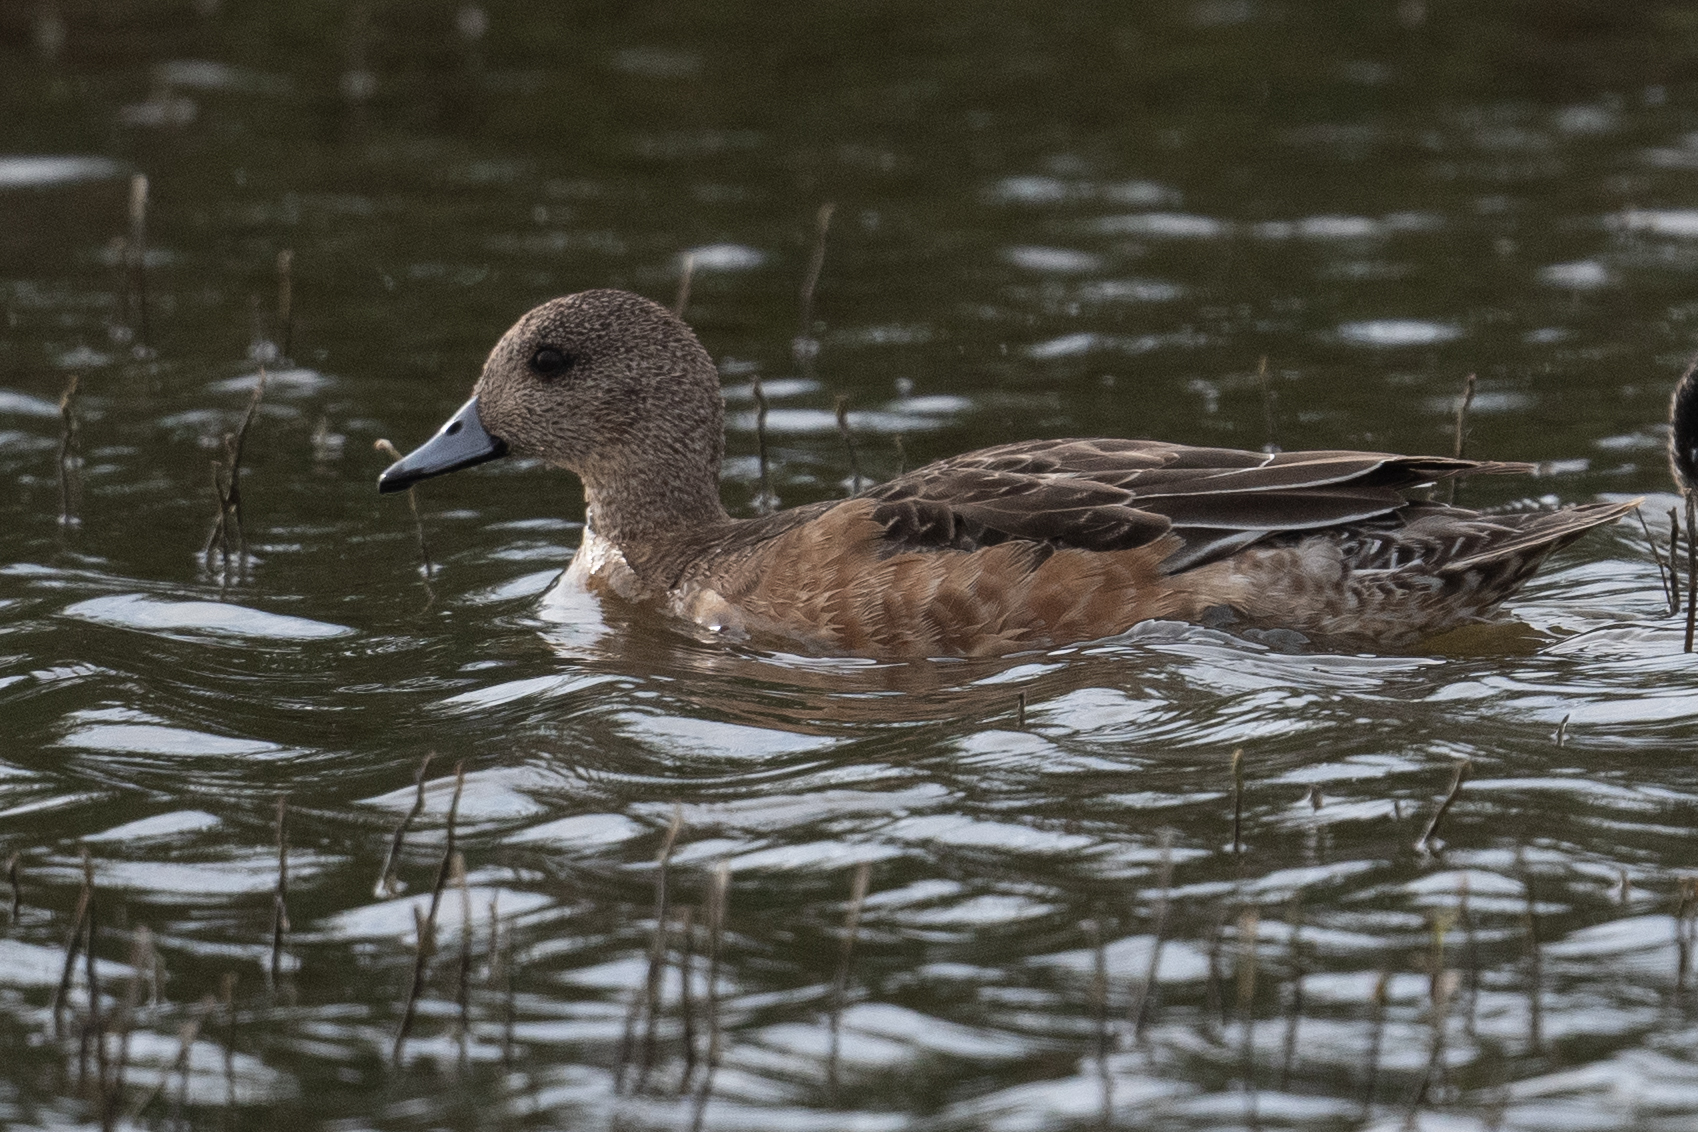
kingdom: Animalia
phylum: Chordata
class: Aves
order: Anseriformes
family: Anatidae
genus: Mareca
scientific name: Mareca americana
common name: American wigeon
